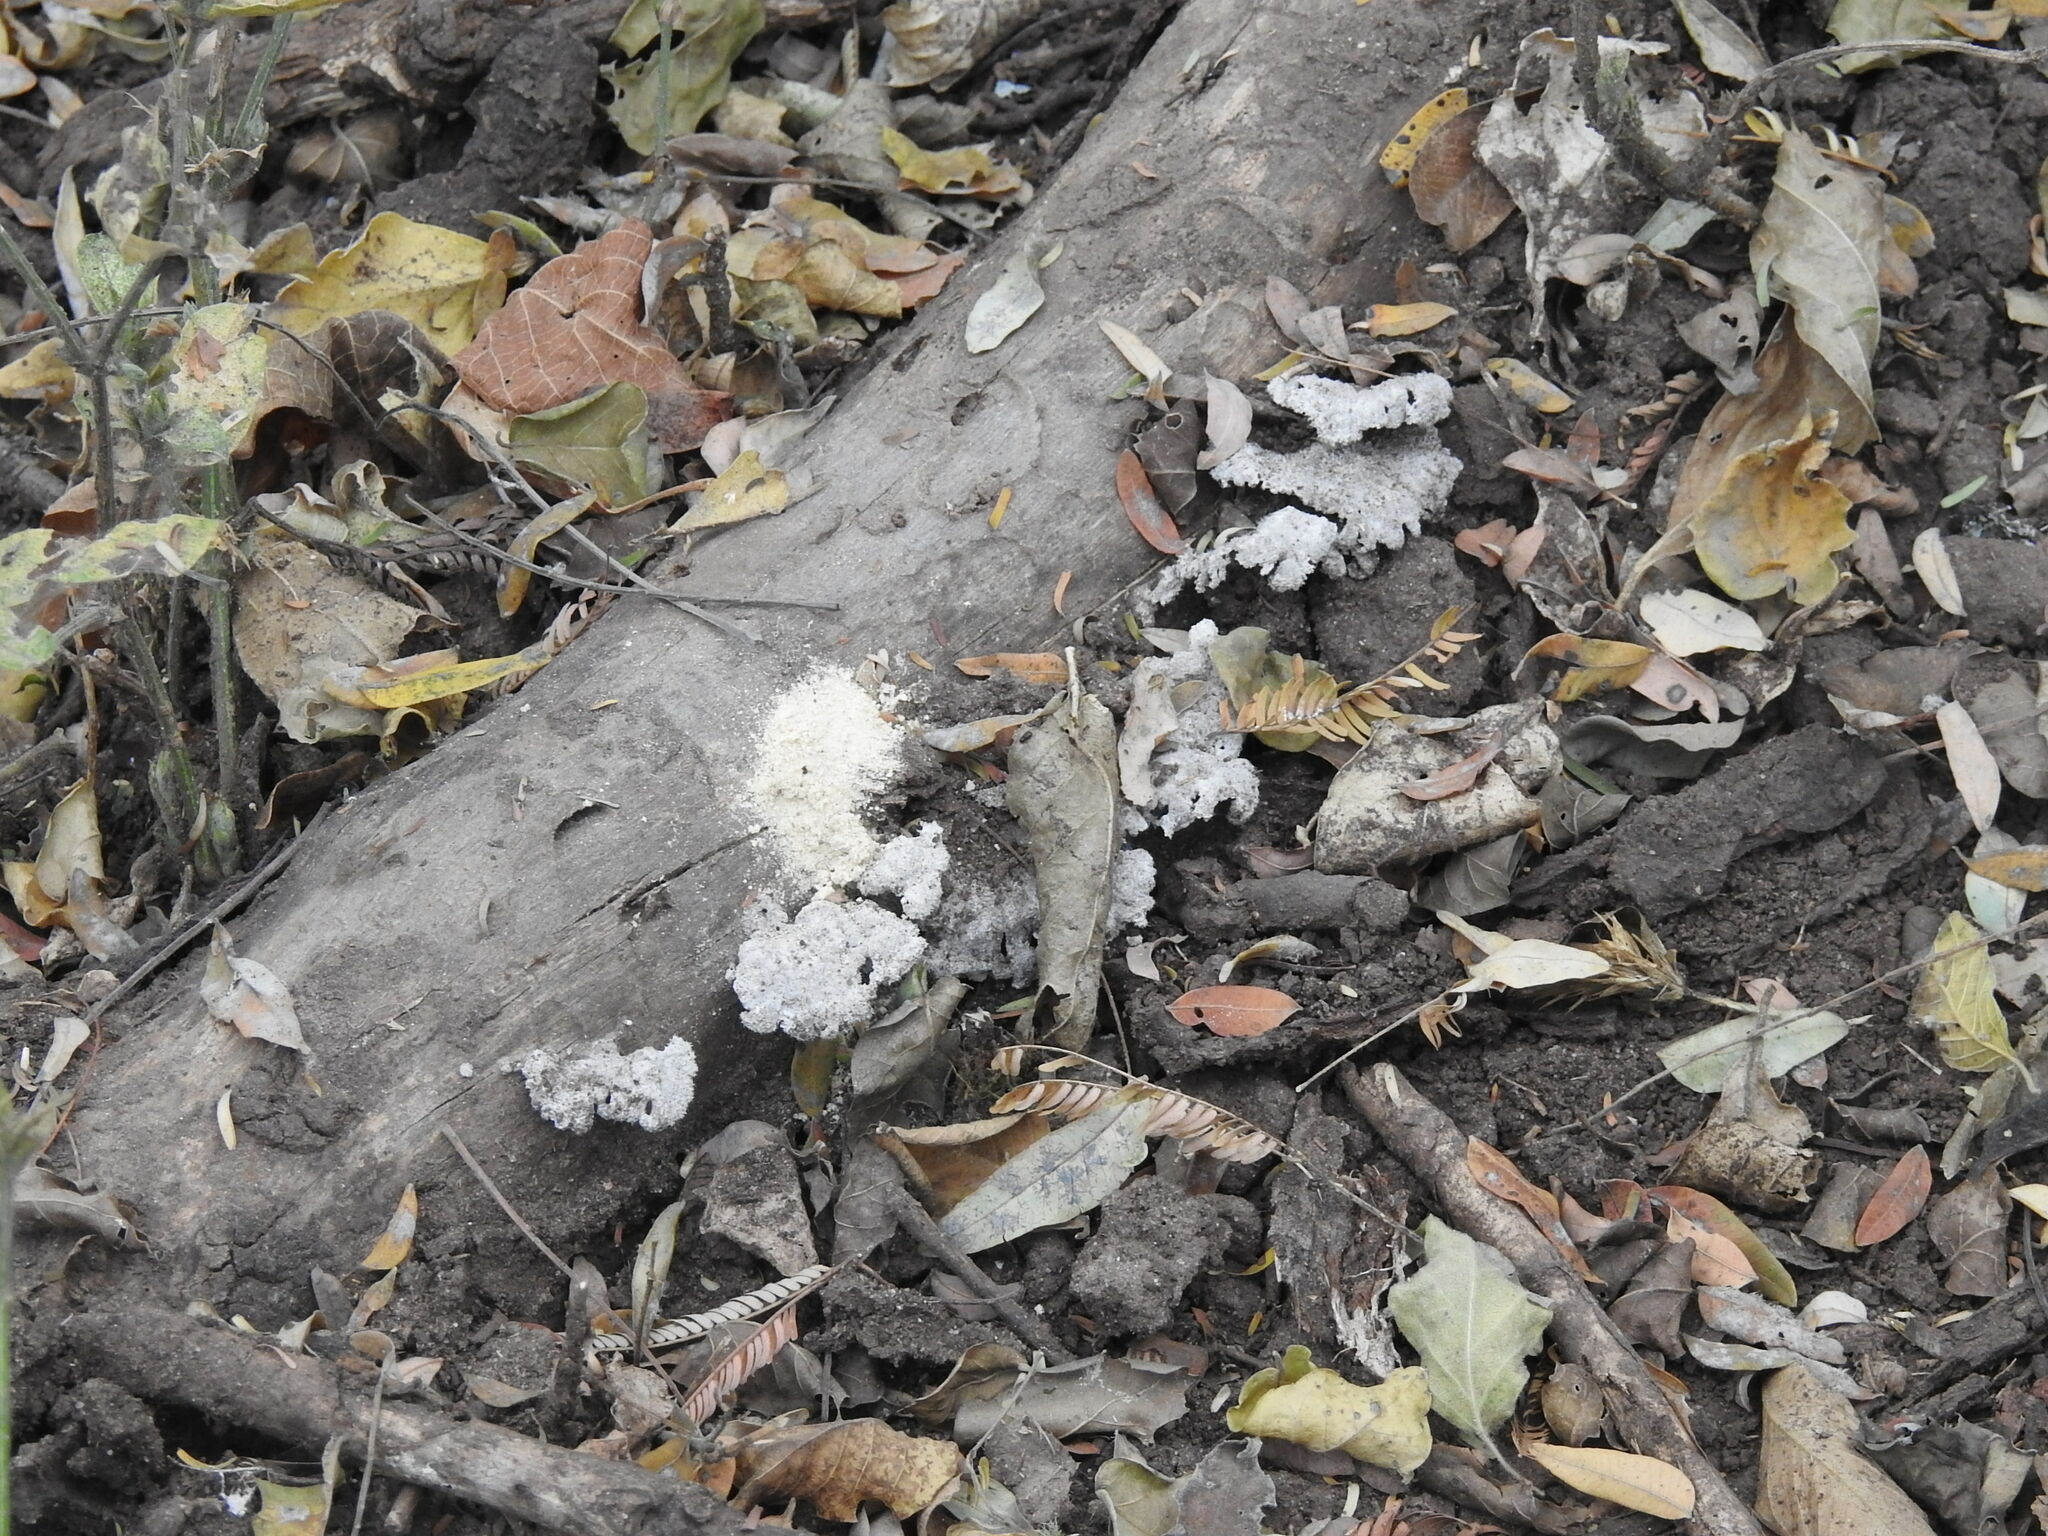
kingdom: Fungi
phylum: Basidiomycota
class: Agaricomycetes
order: Agaricales
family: Schizophyllaceae
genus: Schizophyllum
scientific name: Schizophyllum commune
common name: Common porecrust
